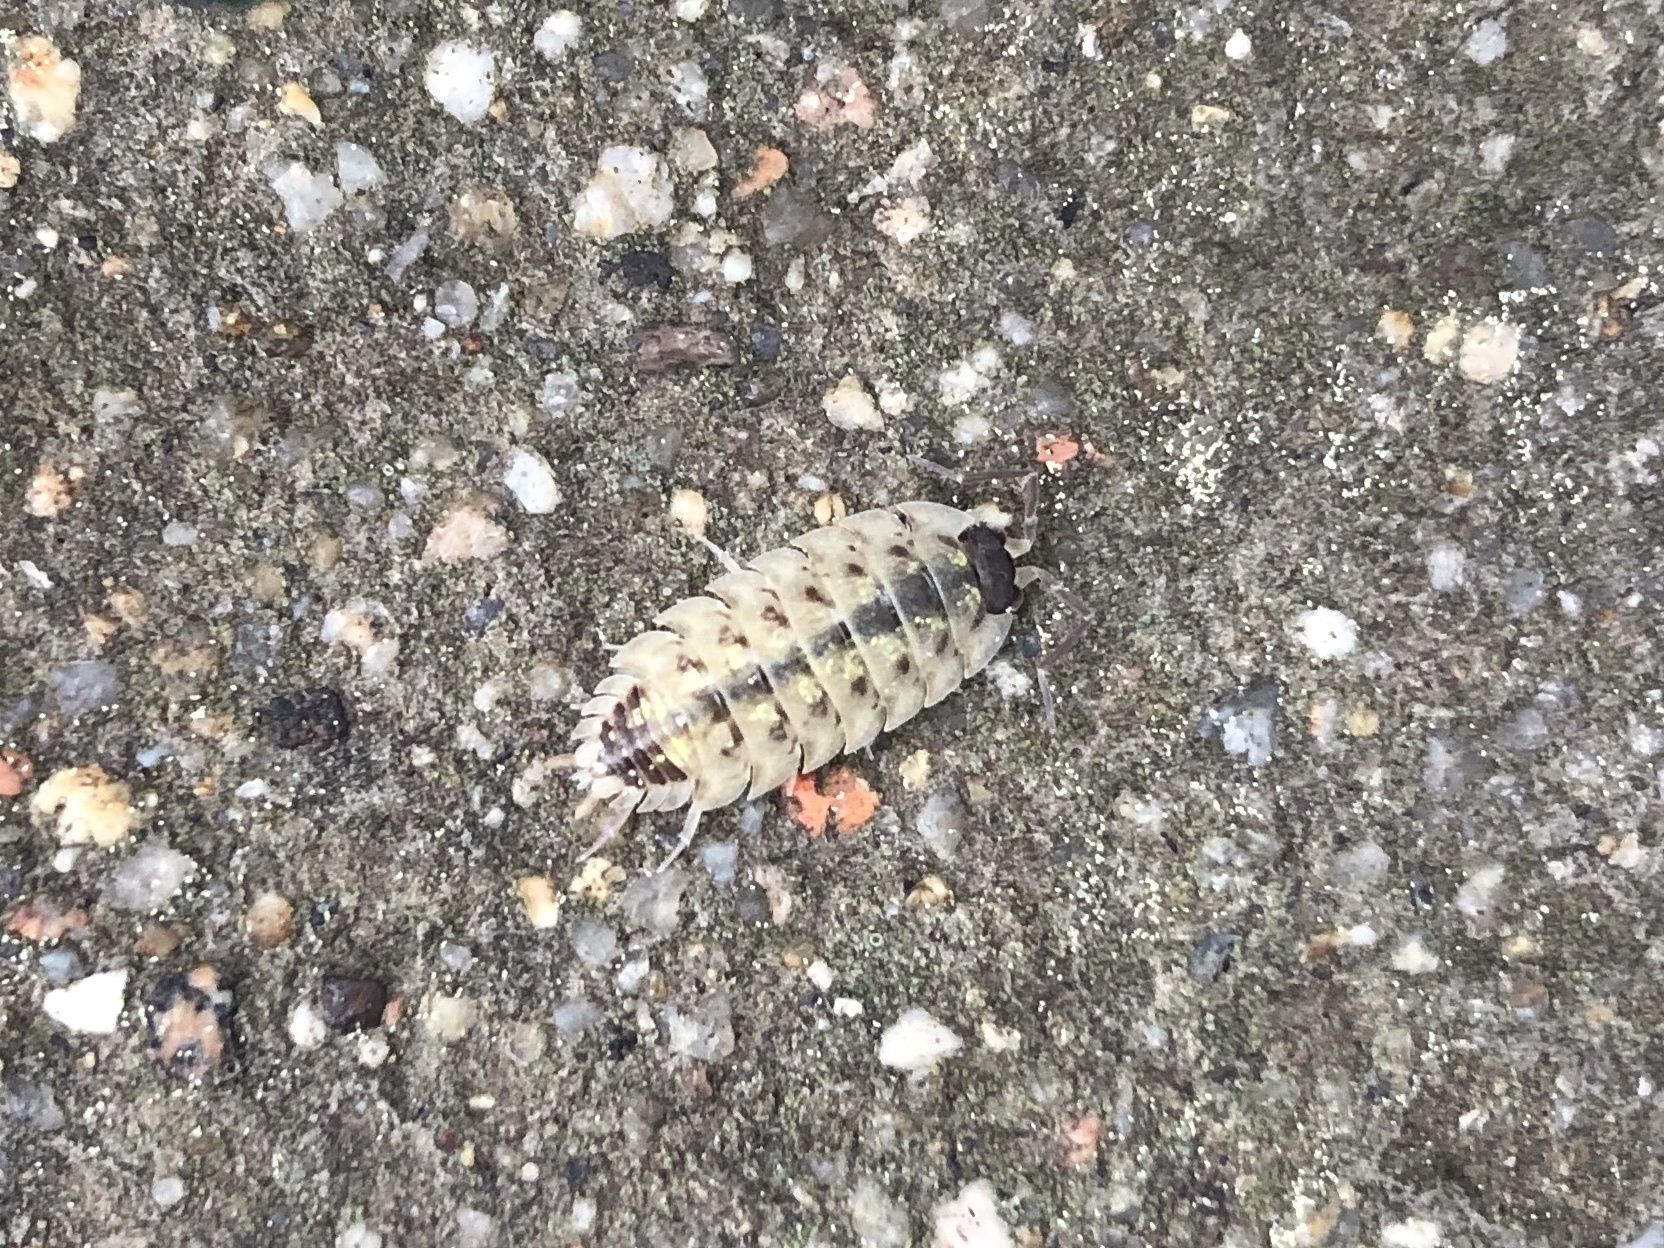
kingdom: Animalia
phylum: Arthropoda
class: Malacostraca
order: Isopoda
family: Porcellionidae
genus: Porcellio
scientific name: Porcellio spinicornis
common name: Painted woodlouse
